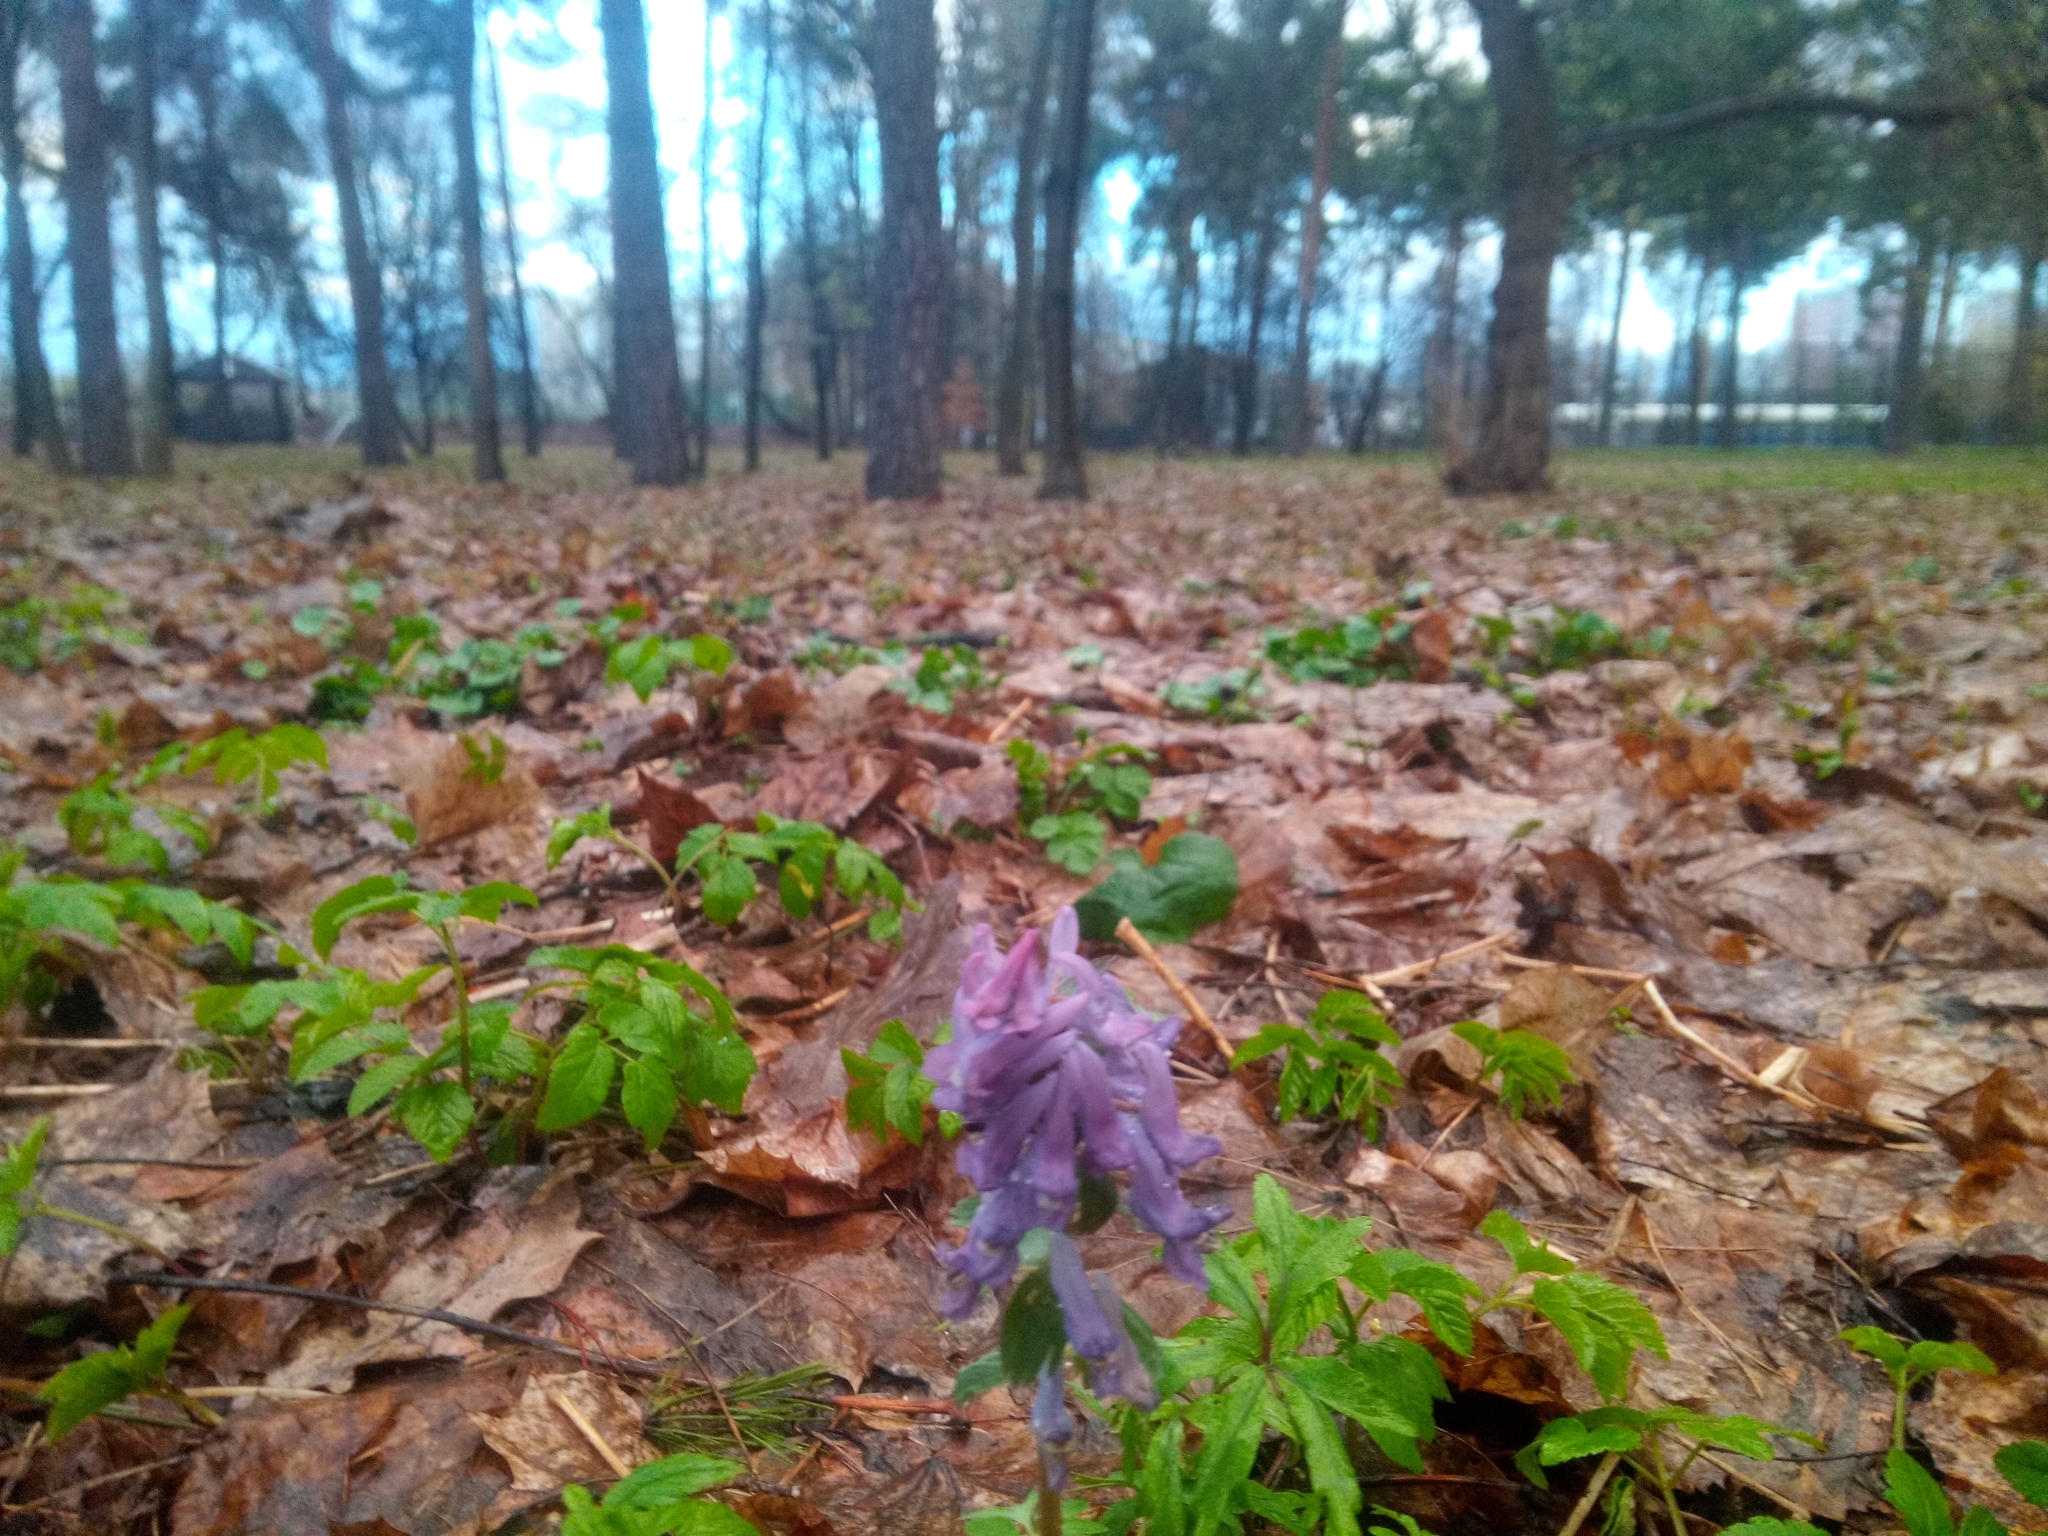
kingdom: Plantae
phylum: Tracheophyta
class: Magnoliopsida
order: Ranunculales
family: Papaveraceae
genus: Corydalis
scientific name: Corydalis solida
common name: Bird-in-a-bush
